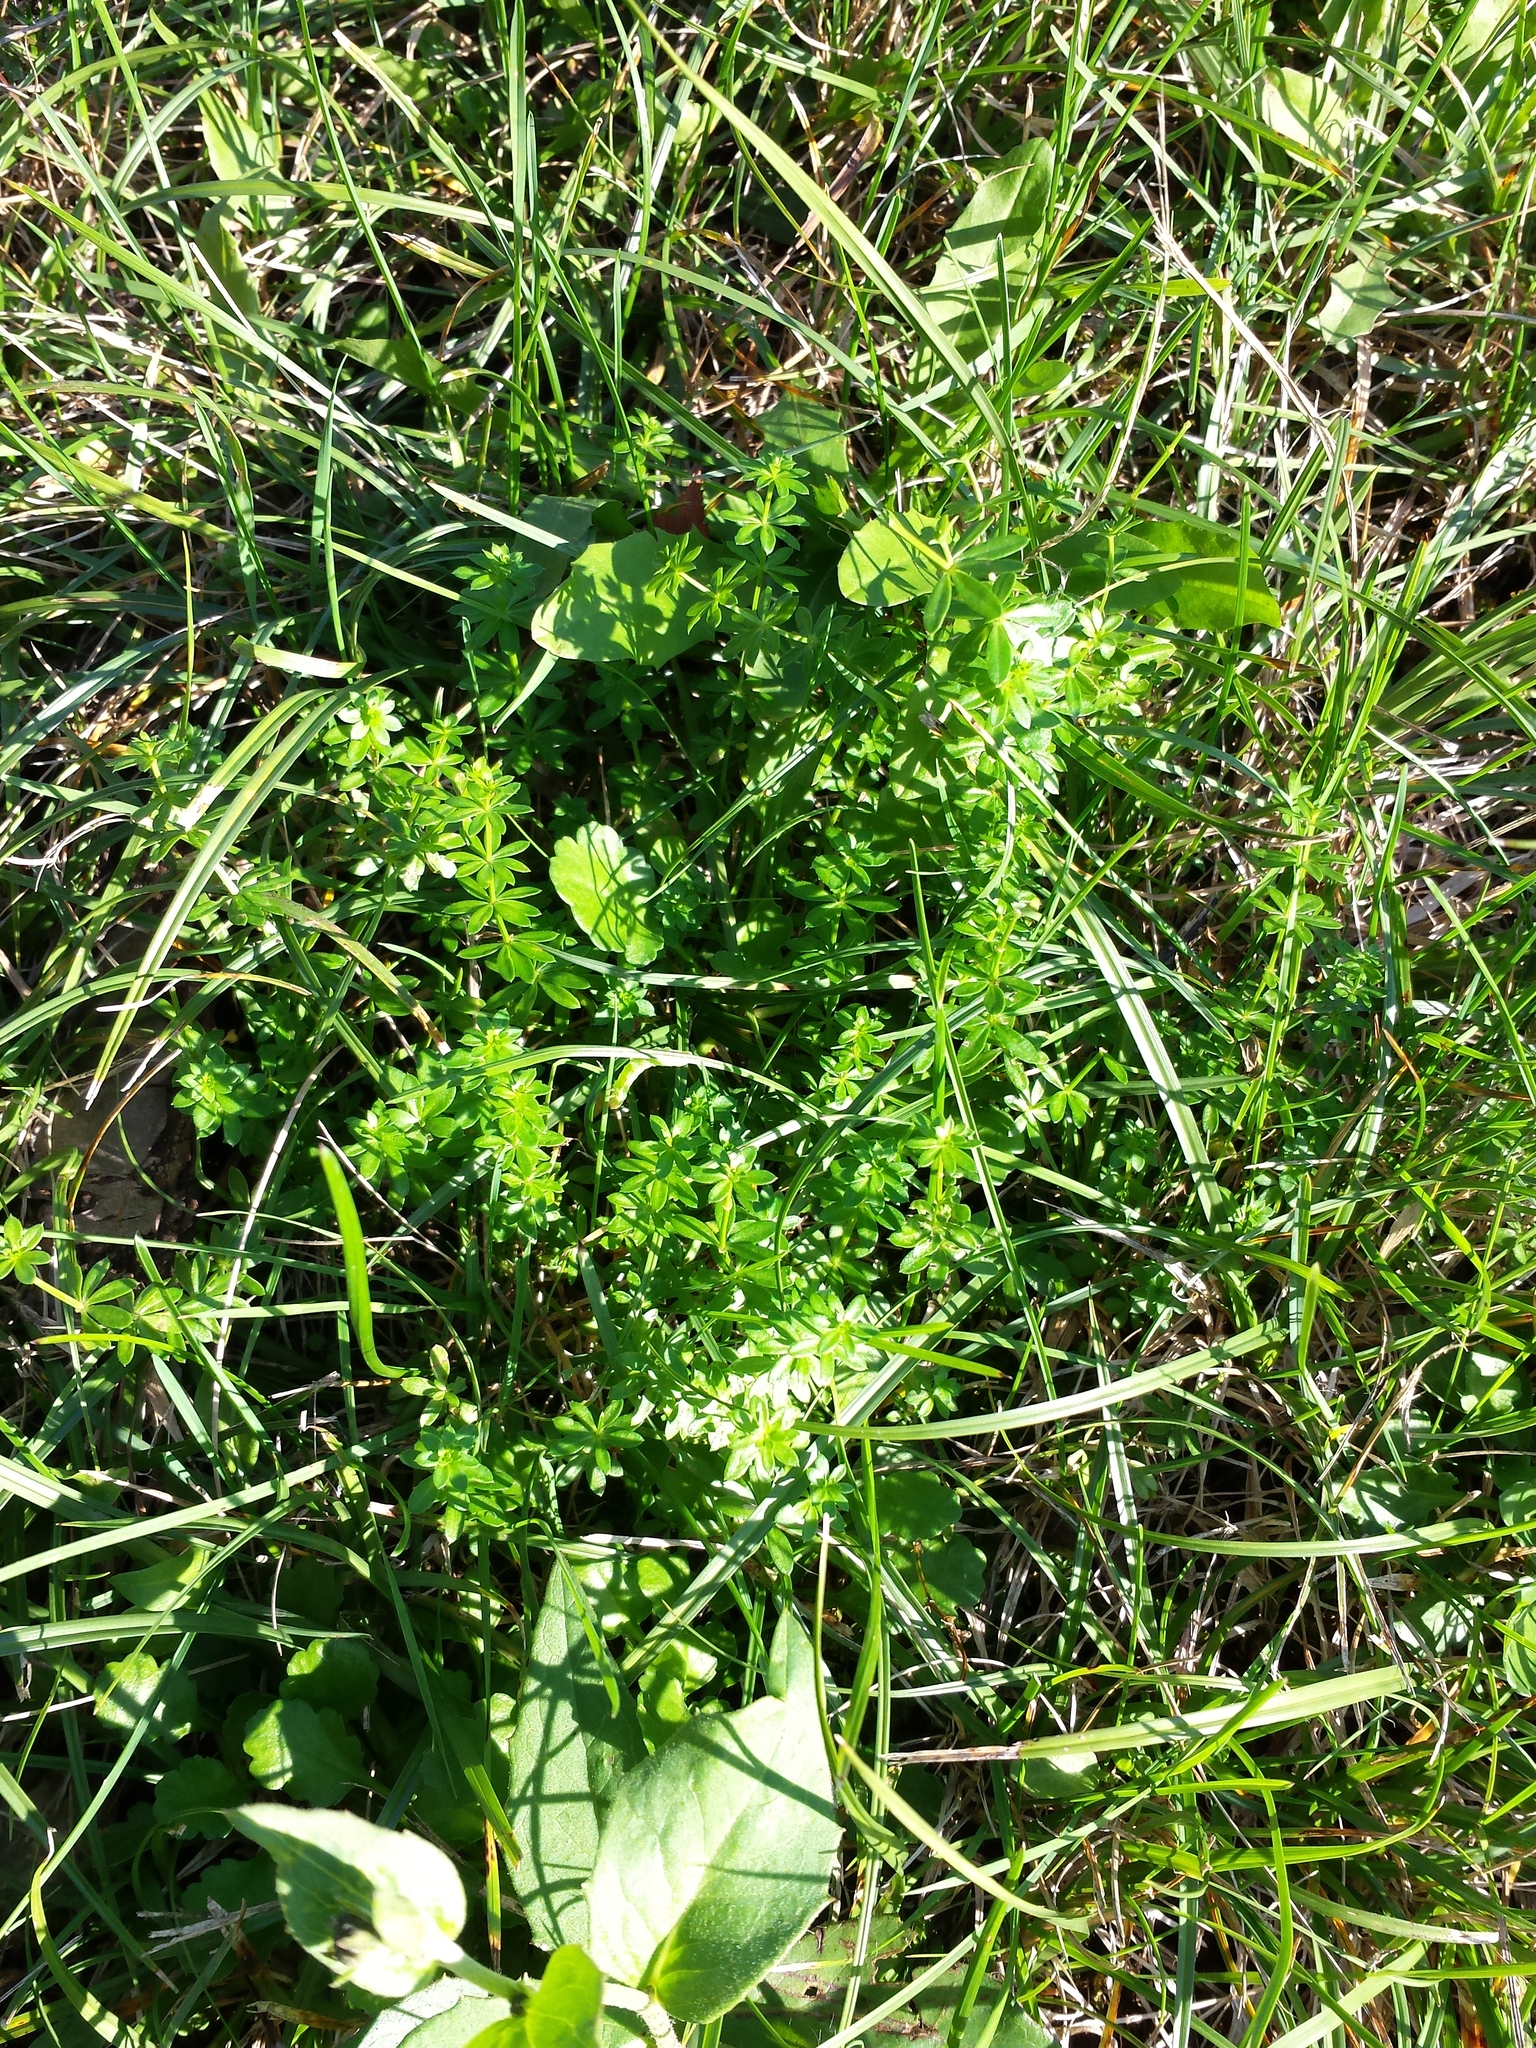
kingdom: Plantae
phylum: Tracheophyta
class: Magnoliopsida
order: Gentianales
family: Rubiaceae
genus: Galium
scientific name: Galium mollugo
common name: Hedge bedstraw
